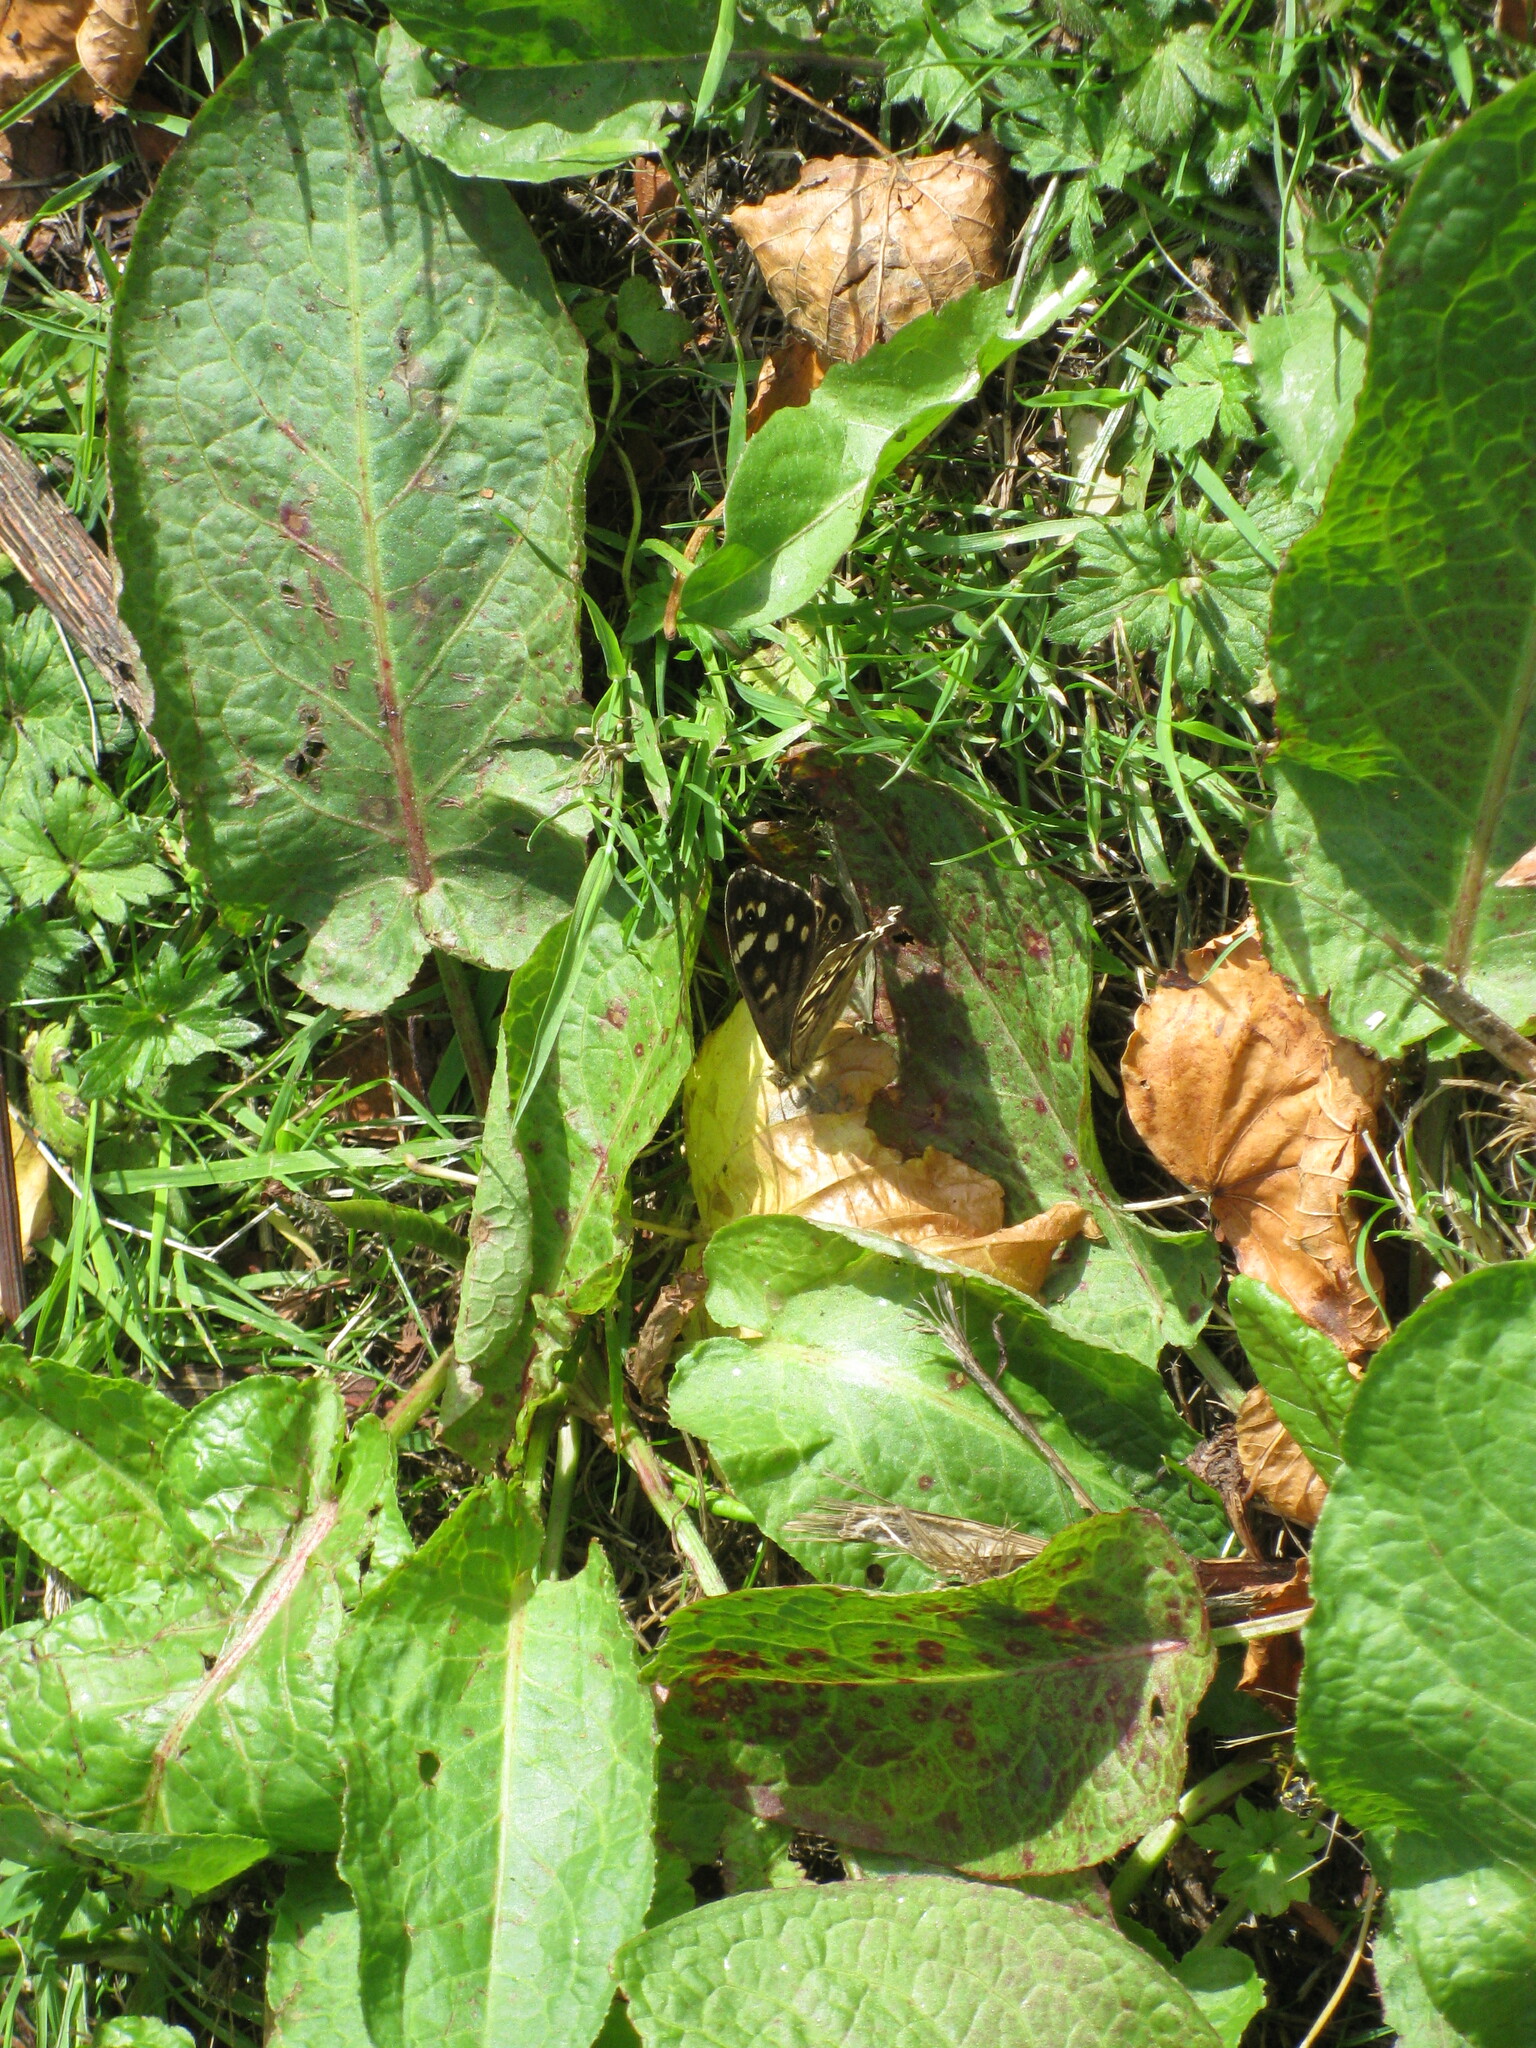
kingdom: Animalia
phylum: Arthropoda
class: Insecta
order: Lepidoptera
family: Nymphalidae
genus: Pararge
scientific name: Pararge aegeria
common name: Speckled wood
